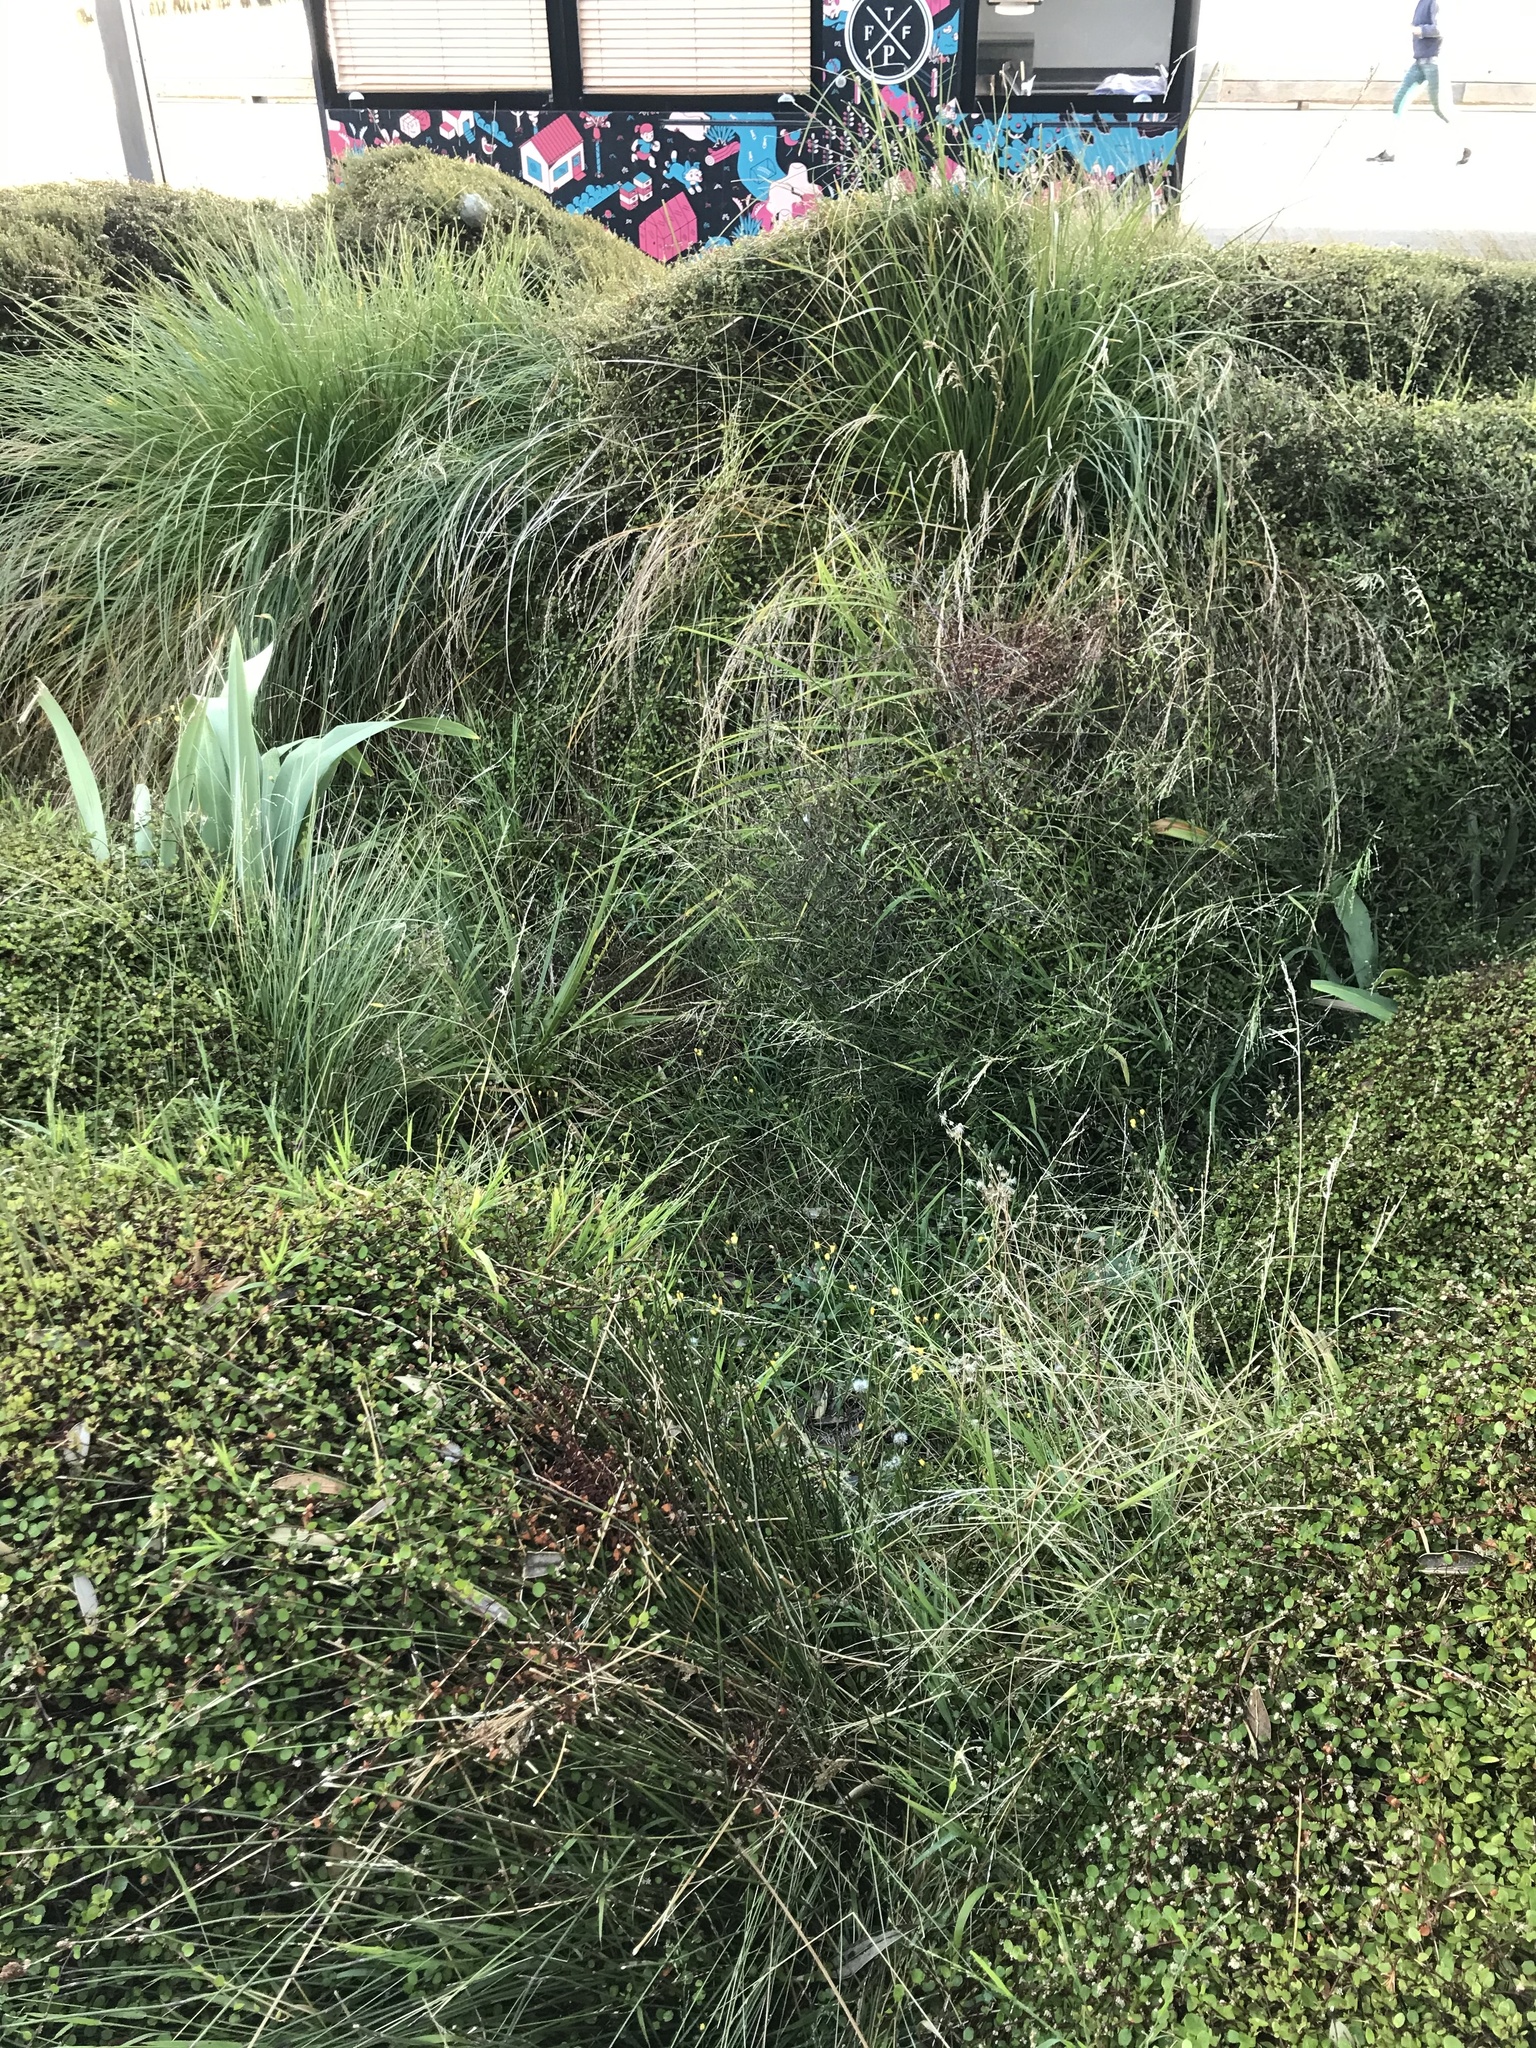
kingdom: Plantae
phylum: Tracheophyta
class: Liliopsida
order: Poales
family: Poaceae
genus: Ehrharta
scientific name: Ehrharta erecta
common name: Panic veldtgrass
